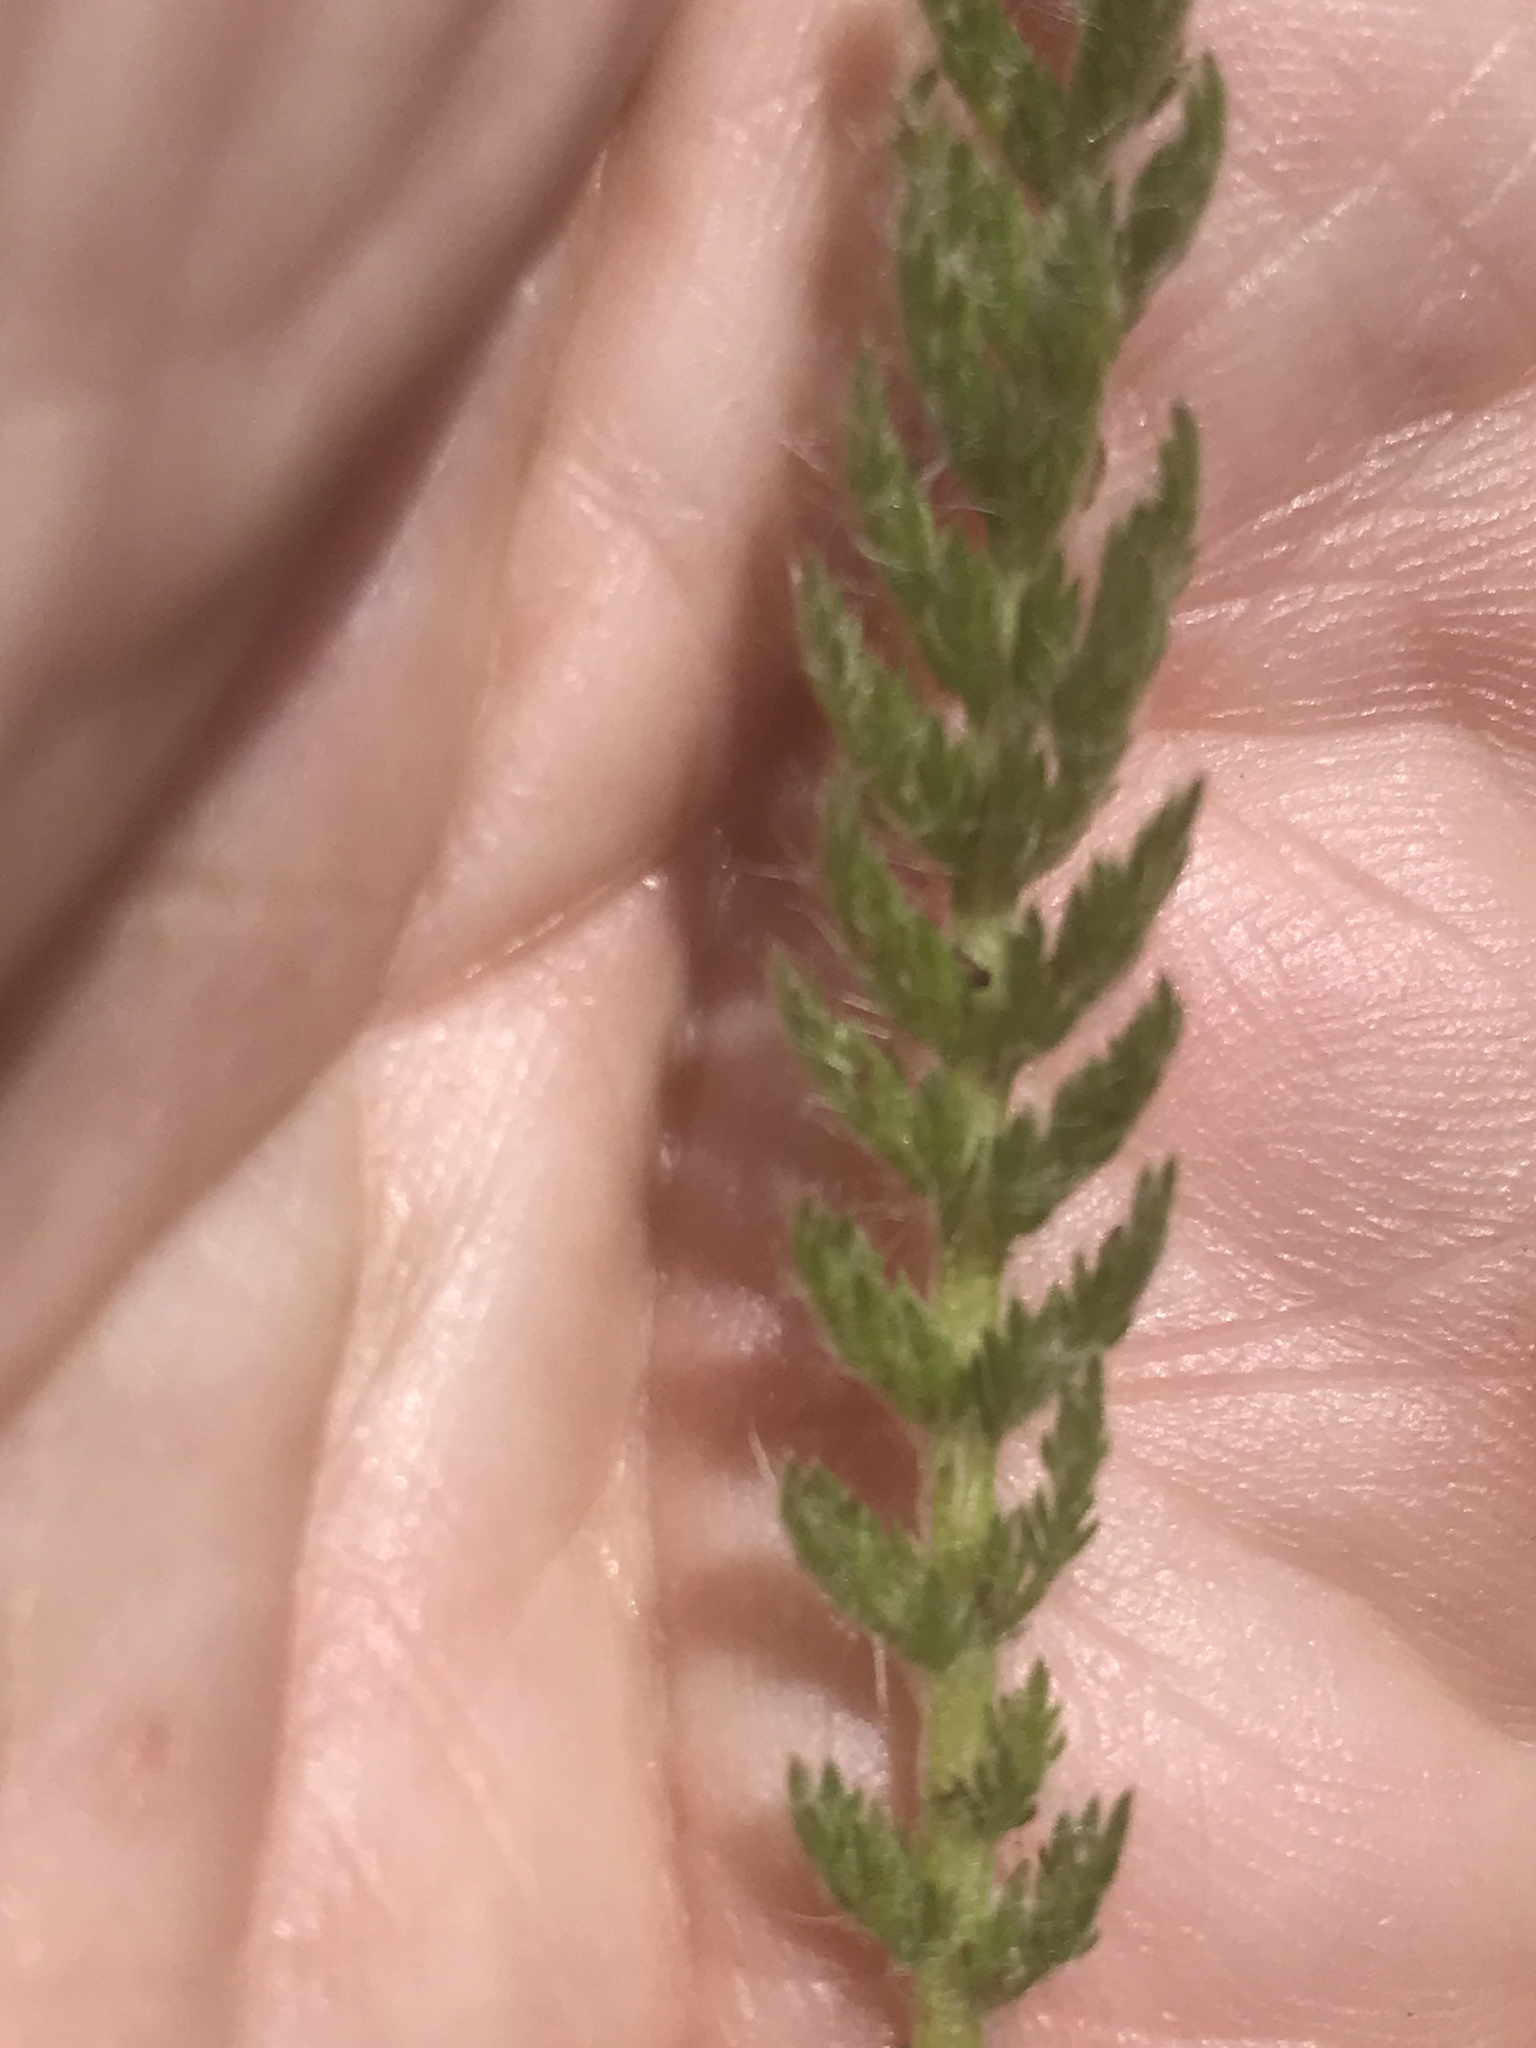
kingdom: Plantae
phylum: Tracheophyta
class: Magnoliopsida
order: Asterales
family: Asteraceae
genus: Achillea
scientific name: Achillea millefolium
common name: Yarrow
